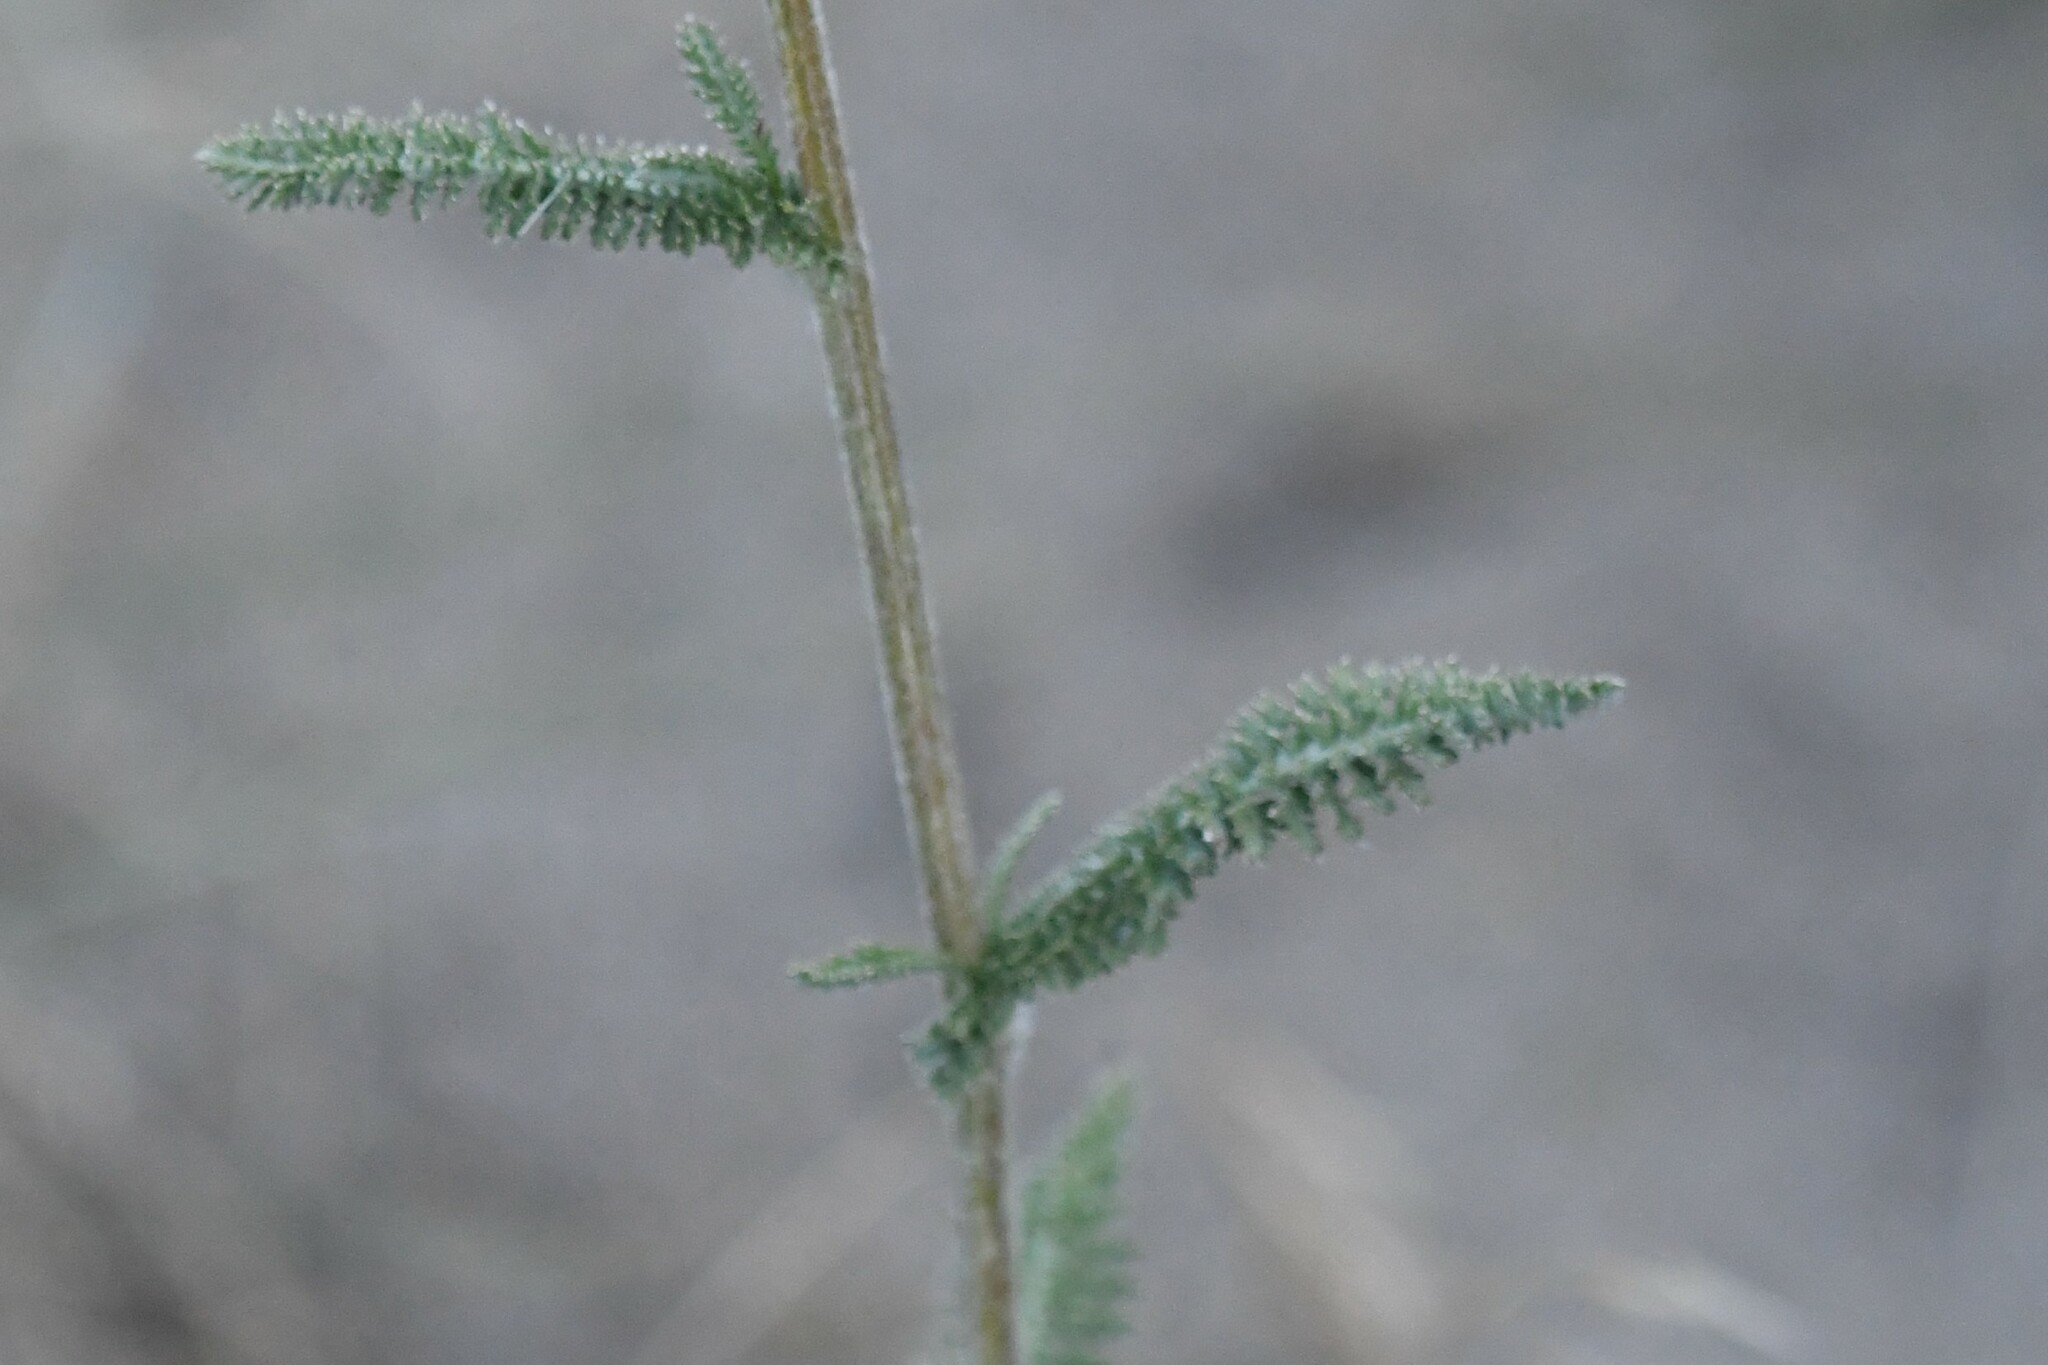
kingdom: Plantae
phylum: Tracheophyta
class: Magnoliopsida
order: Asterales
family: Asteraceae
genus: Achillea
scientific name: Achillea millefolium
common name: Yarrow
